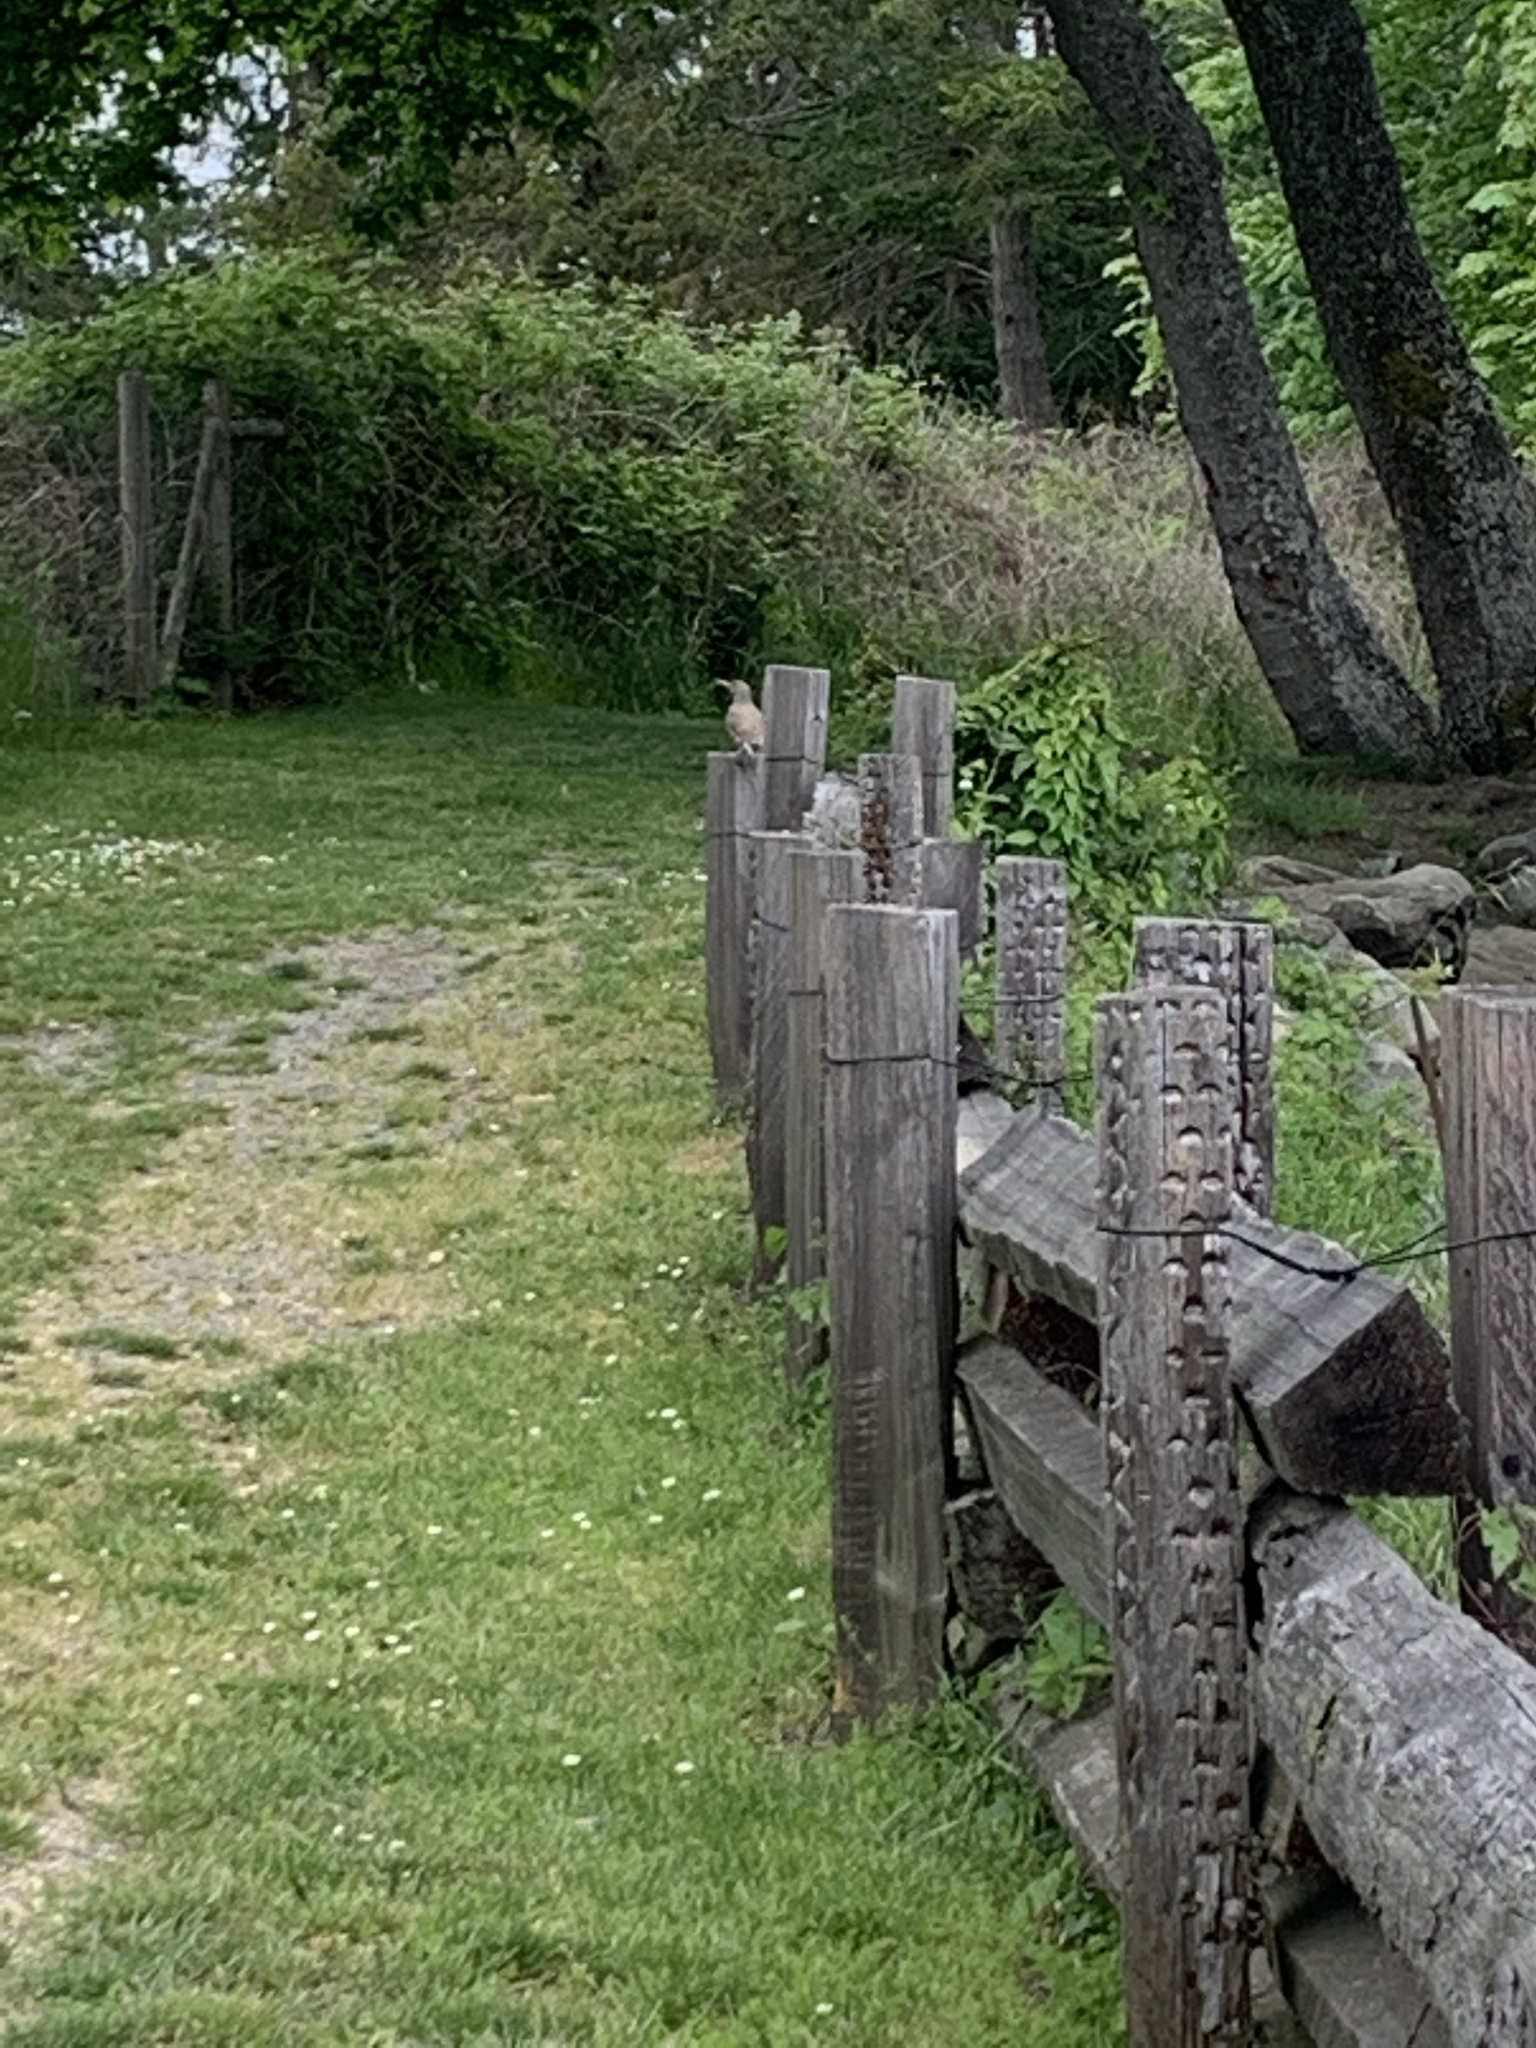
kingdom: Animalia
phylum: Chordata
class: Aves
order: Piciformes
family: Picidae
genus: Colaptes
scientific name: Colaptes auratus
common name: Northern flicker
